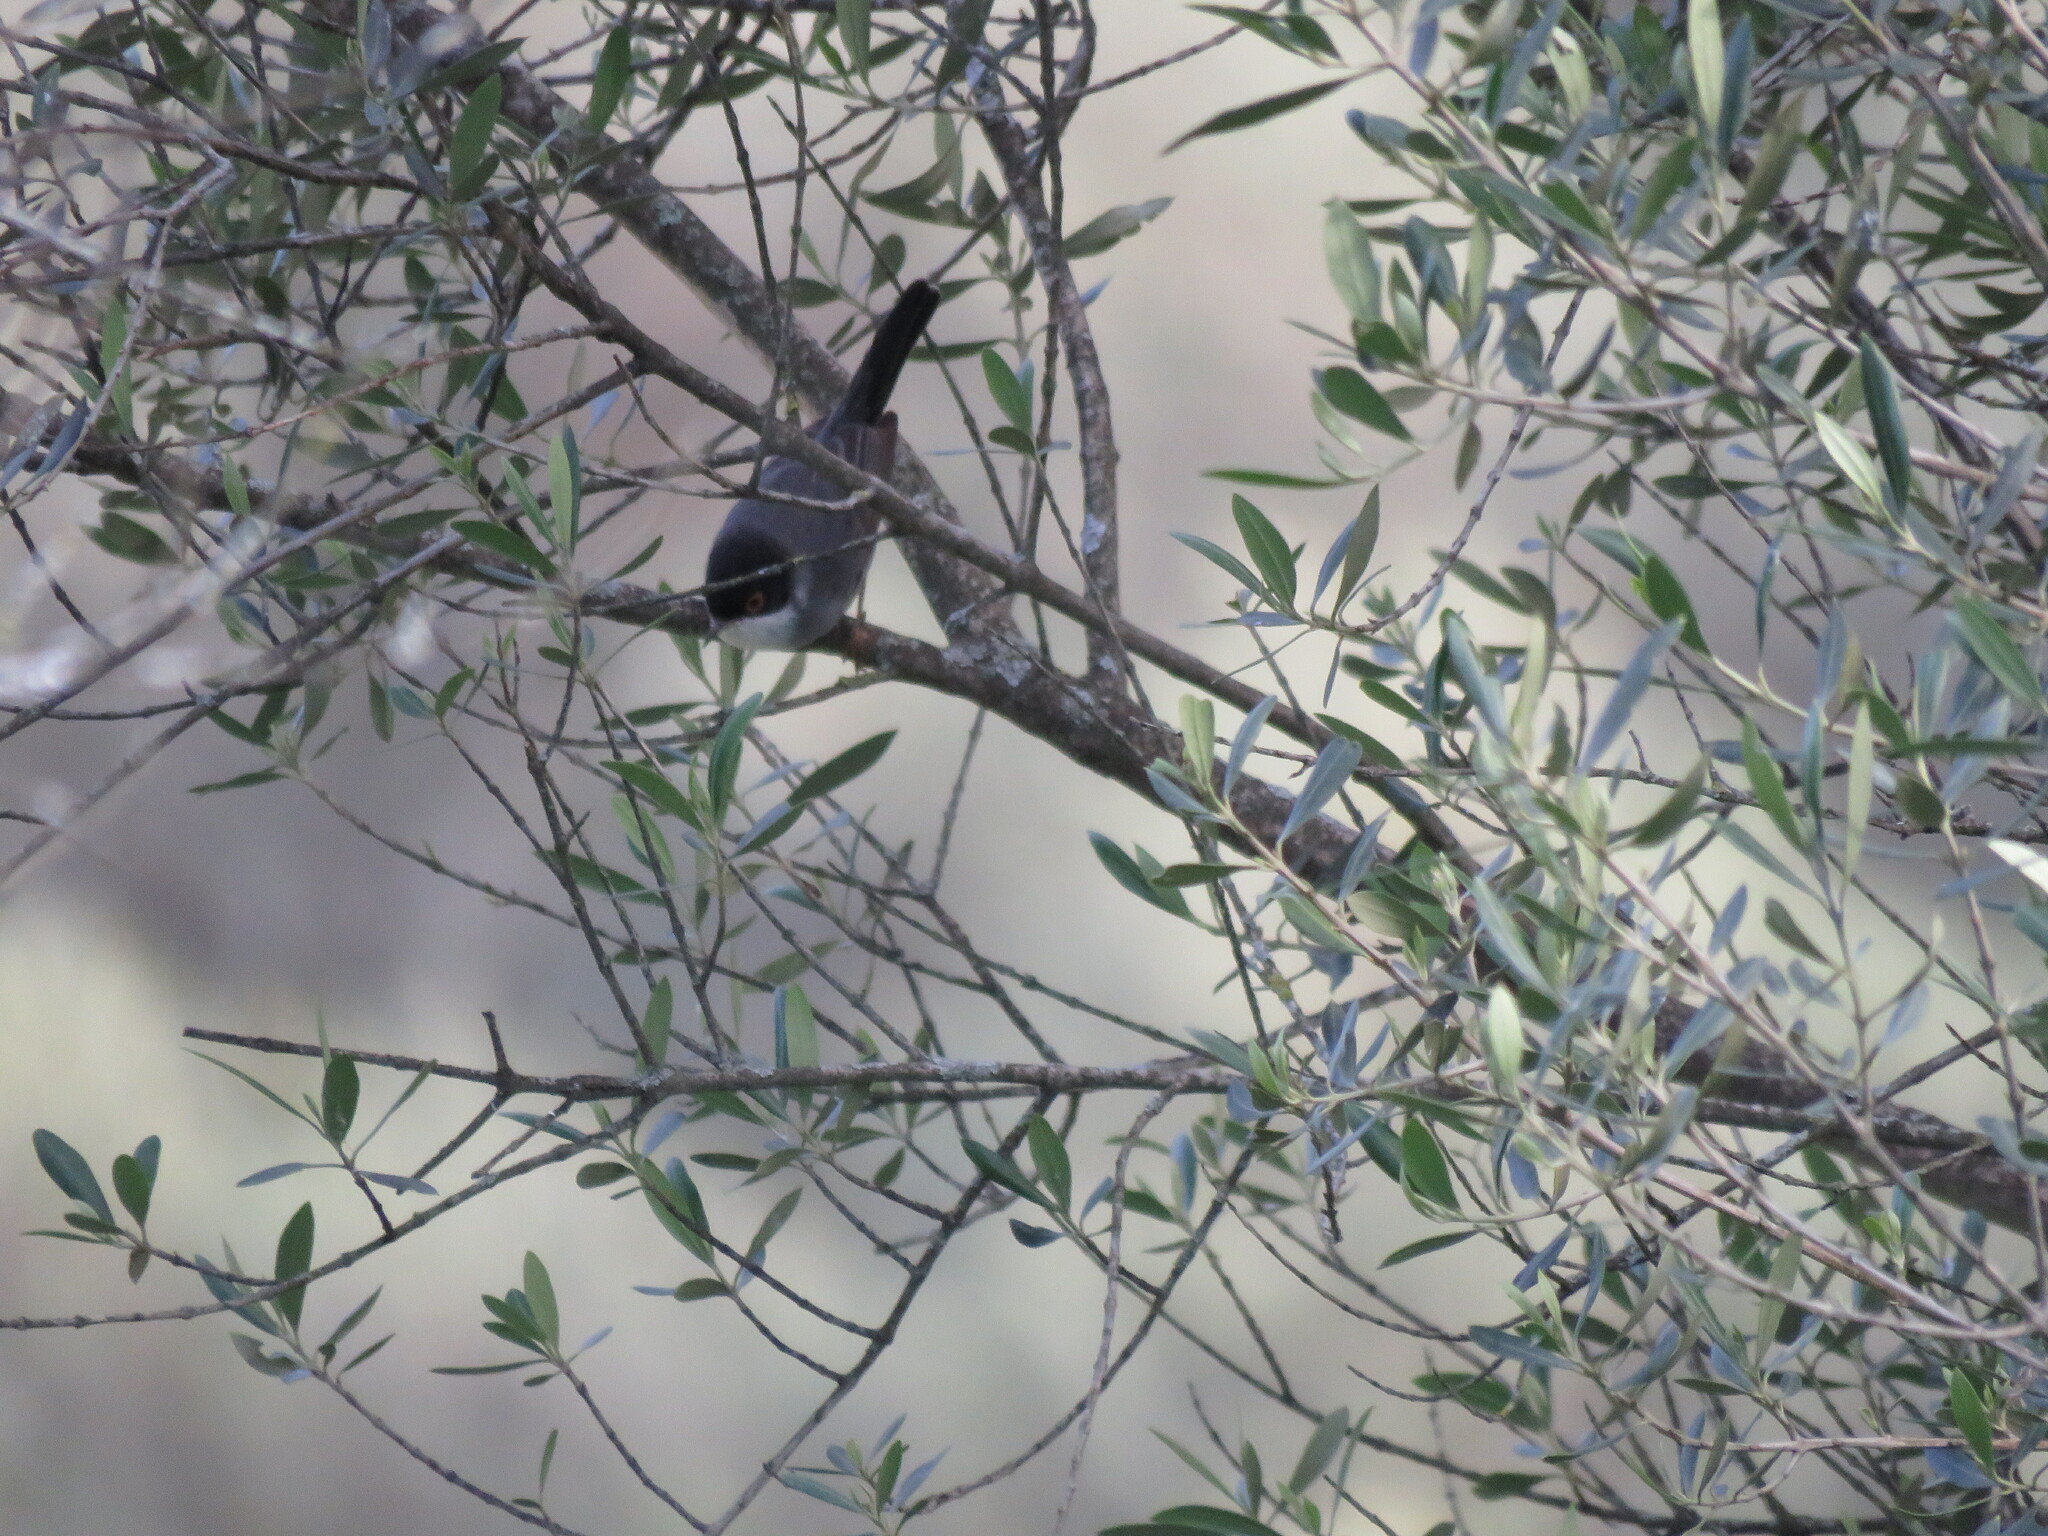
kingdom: Animalia
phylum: Chordata
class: Aves
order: Passeriformes
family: Sylviidae
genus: Curruca
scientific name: Curruca melanocephala
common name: Sardinian warbler
